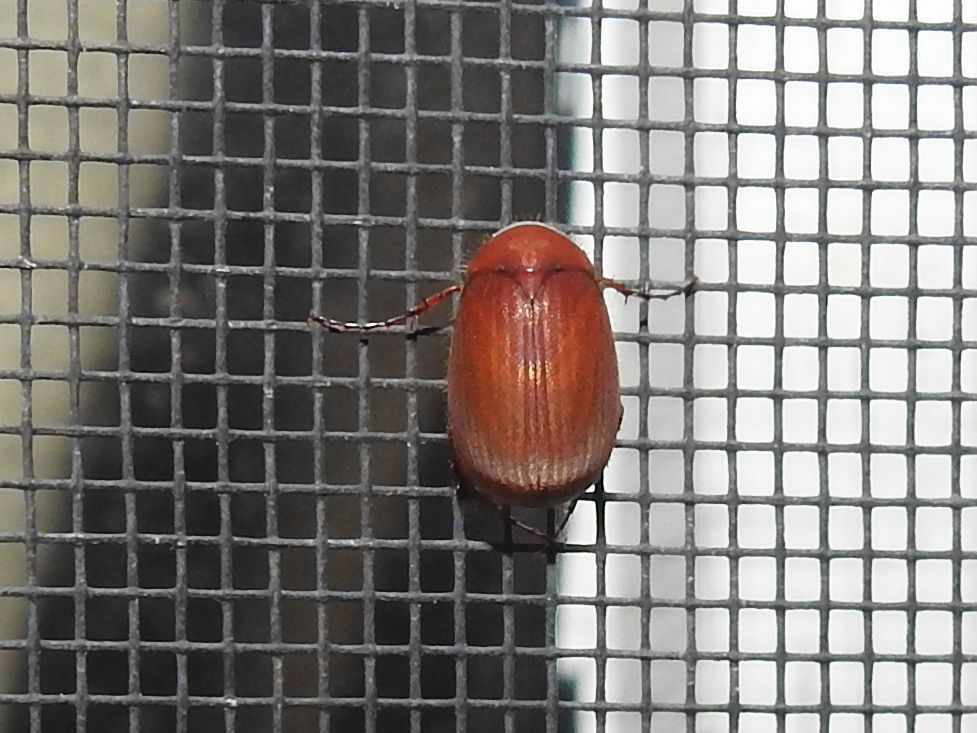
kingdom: Animalia
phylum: Arthropoda
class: Insecta
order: Coleoptera
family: Scarabaeidae
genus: Maladera
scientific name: Maladera formosae
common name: Asiatic garden beetle
